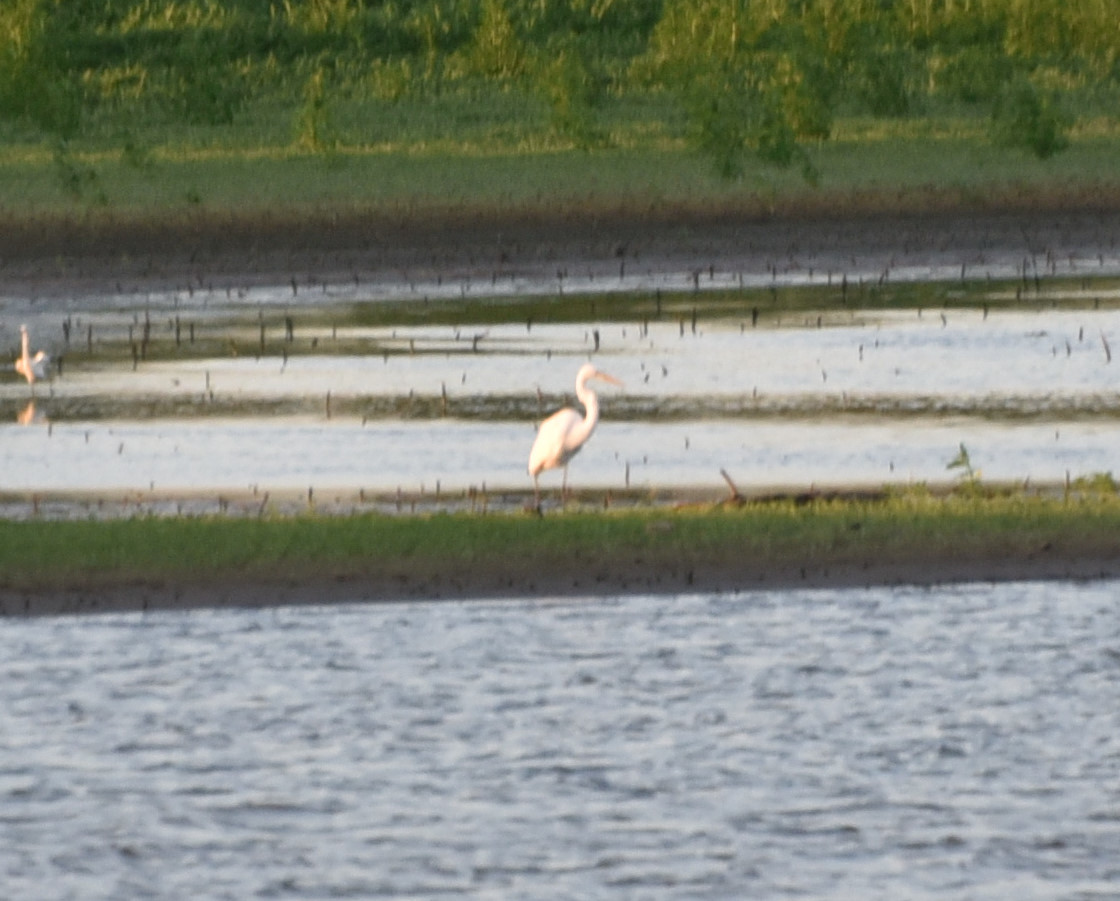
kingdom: Animalia
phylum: Chordata
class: Aves
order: Pelecaniformes
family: Ardeidae
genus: Ardea
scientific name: Ardea alba
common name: Great egret
